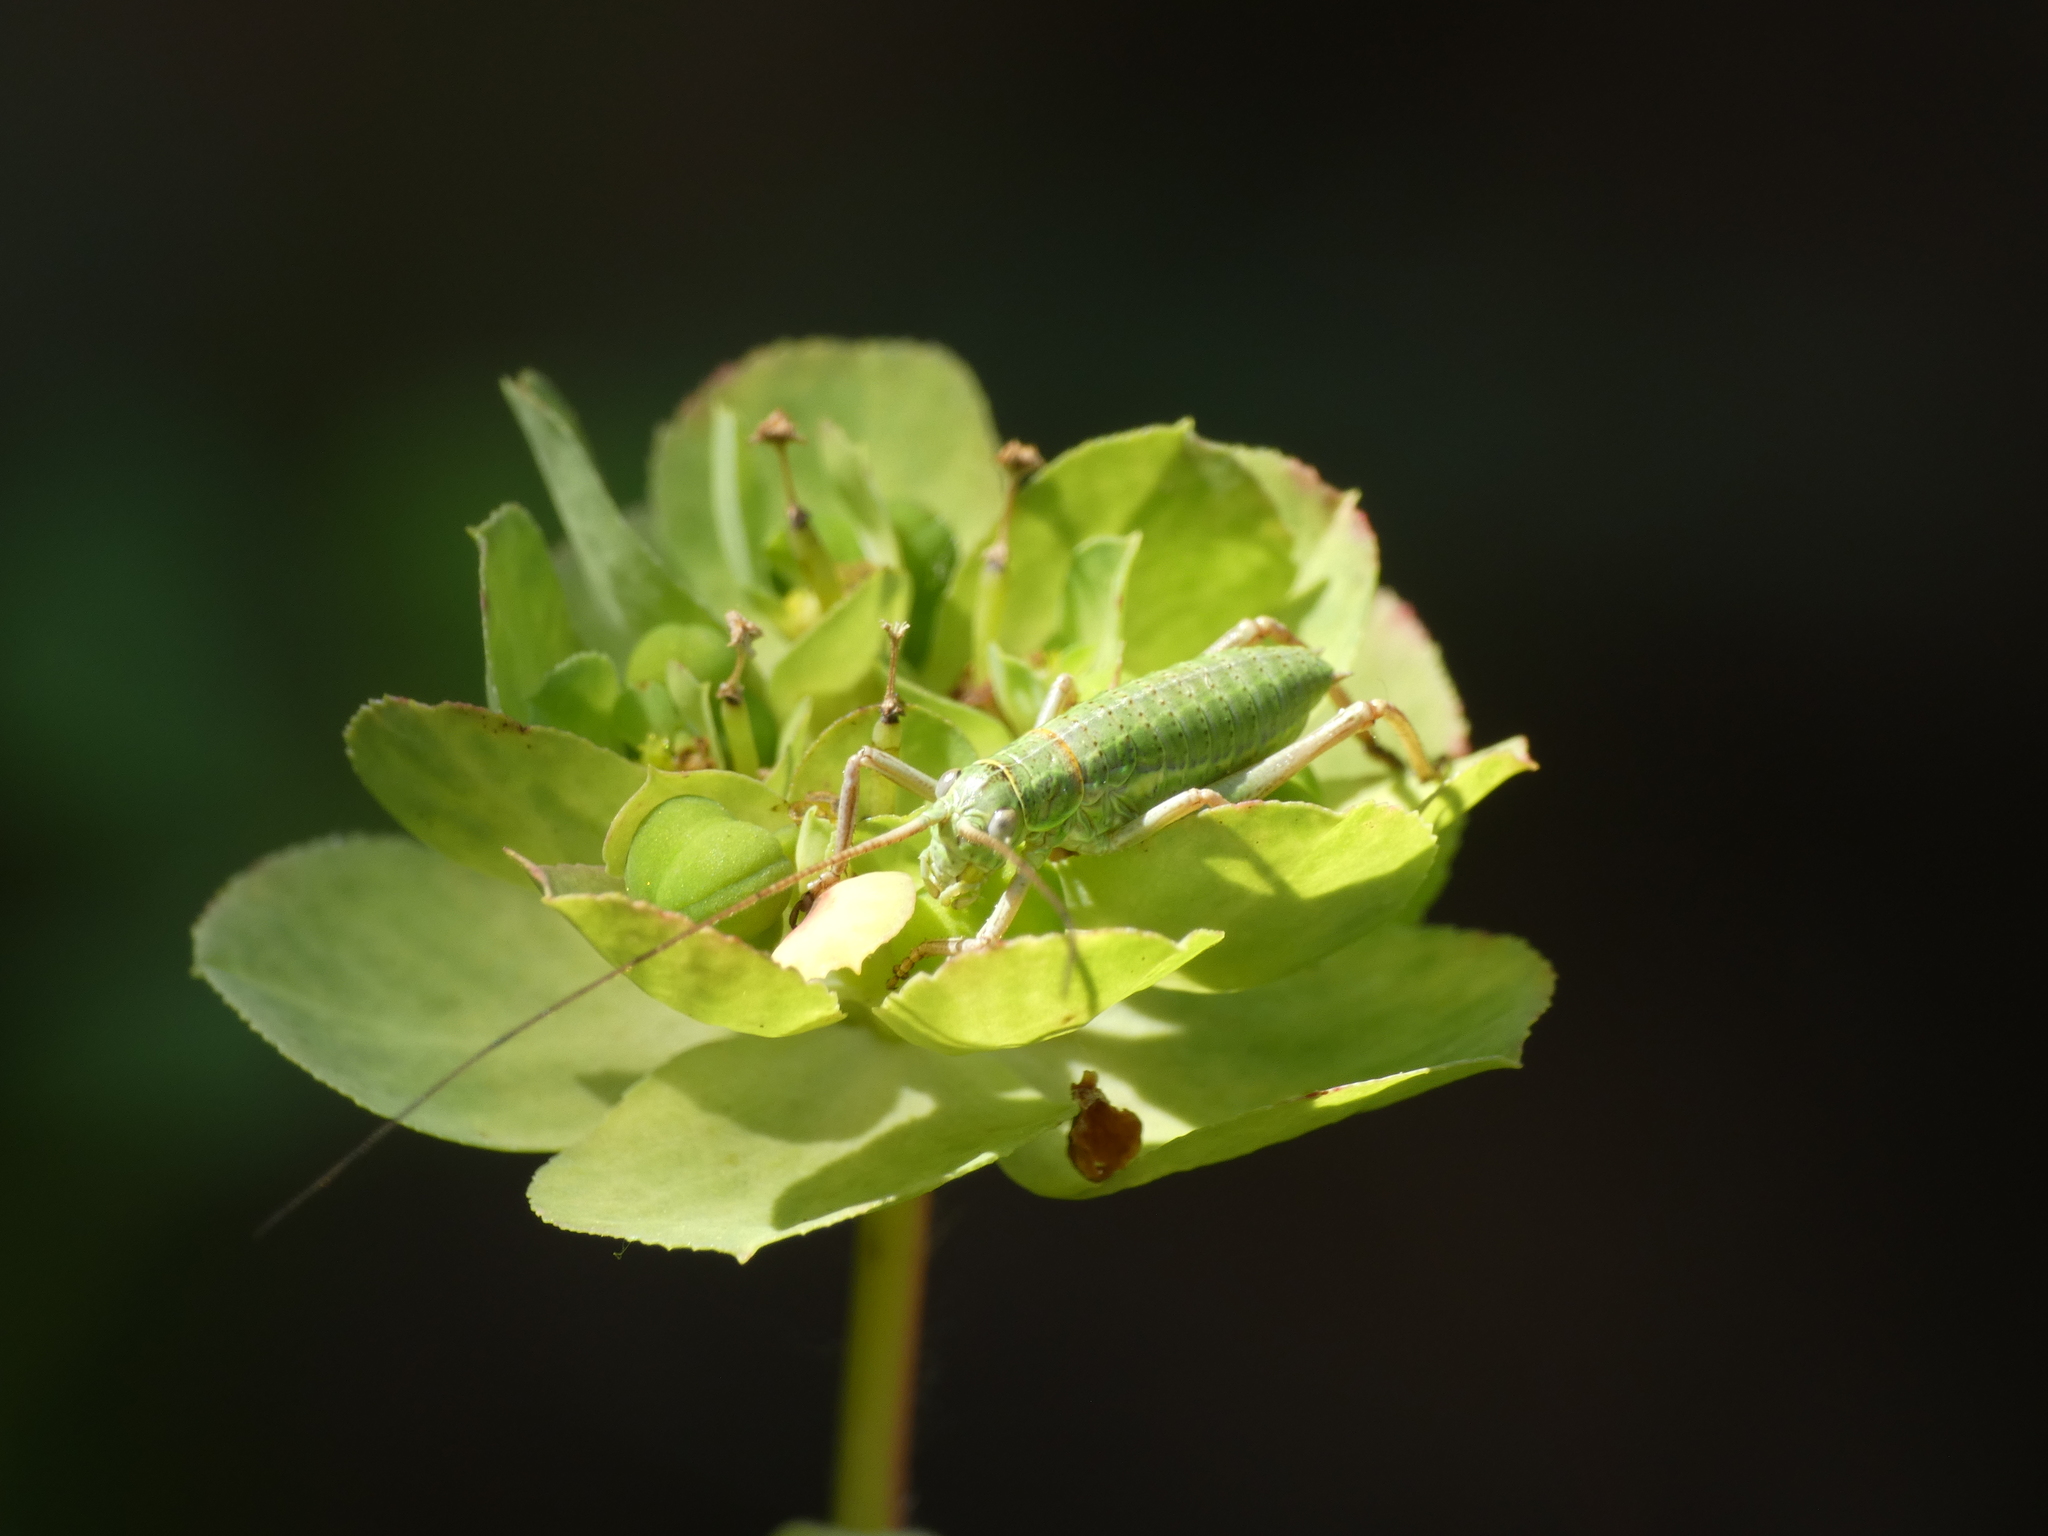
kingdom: Animalia
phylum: Arthropoda
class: Insecta
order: Orthoptera
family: Tettigoniidae
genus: Ephippiger
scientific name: Ephippiger diurnus
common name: Western saddle bush-cricket
